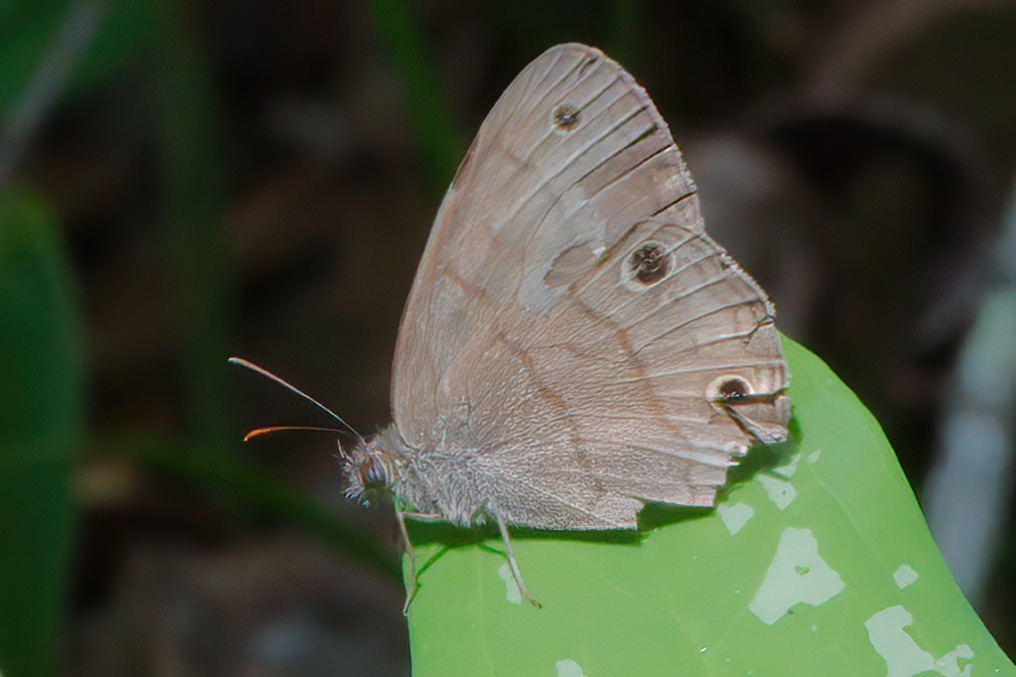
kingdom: Animalia
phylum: Arthropoda
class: Insecta
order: Lepidoptera
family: Nymphalidae
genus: Hermeuptychia
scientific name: Hermeuptychia hermes
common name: Hermes satyr
